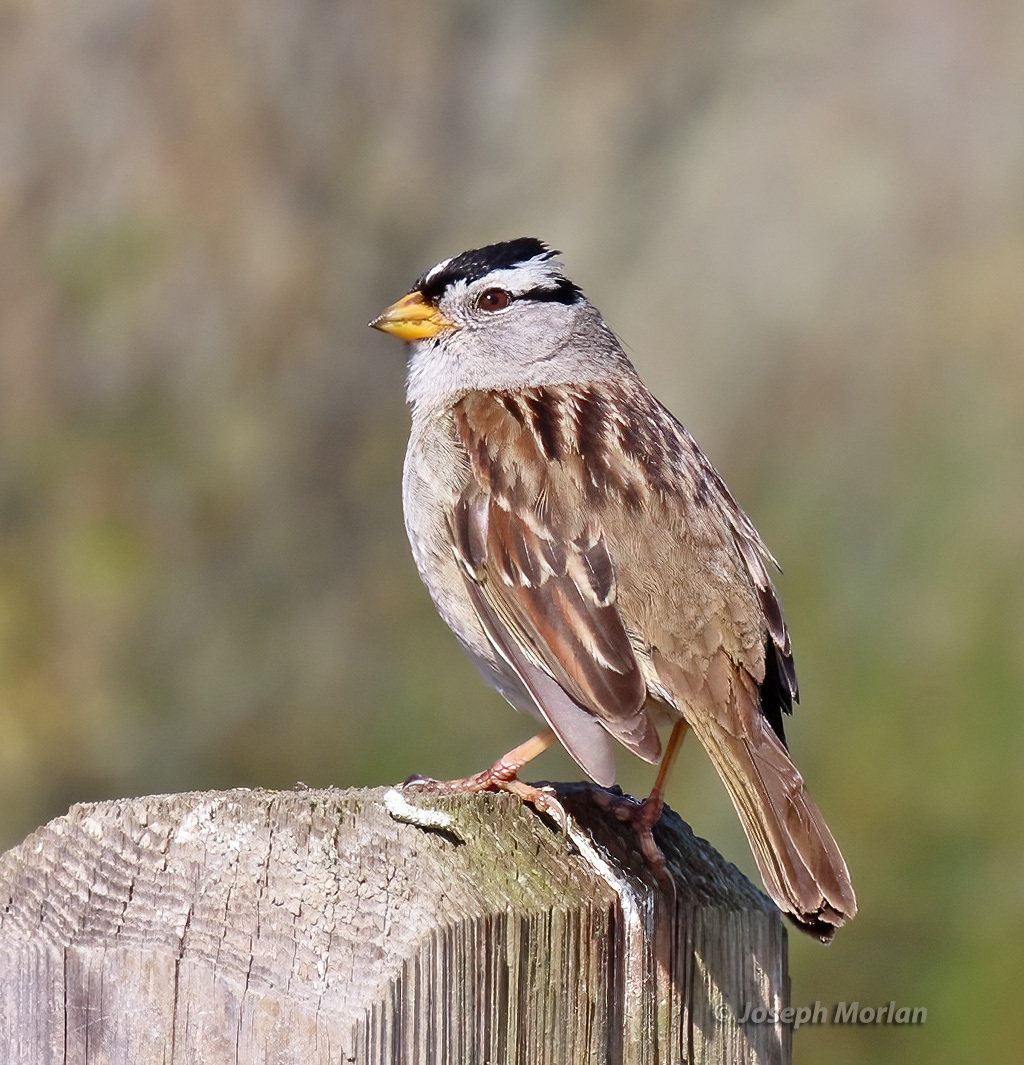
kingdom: Animalia
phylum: Chordata
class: Aves
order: Passeriformes
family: Passerellidae
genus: Zonotrichia
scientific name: Zonotrichia leucophrys
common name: White-crowned sparrow
